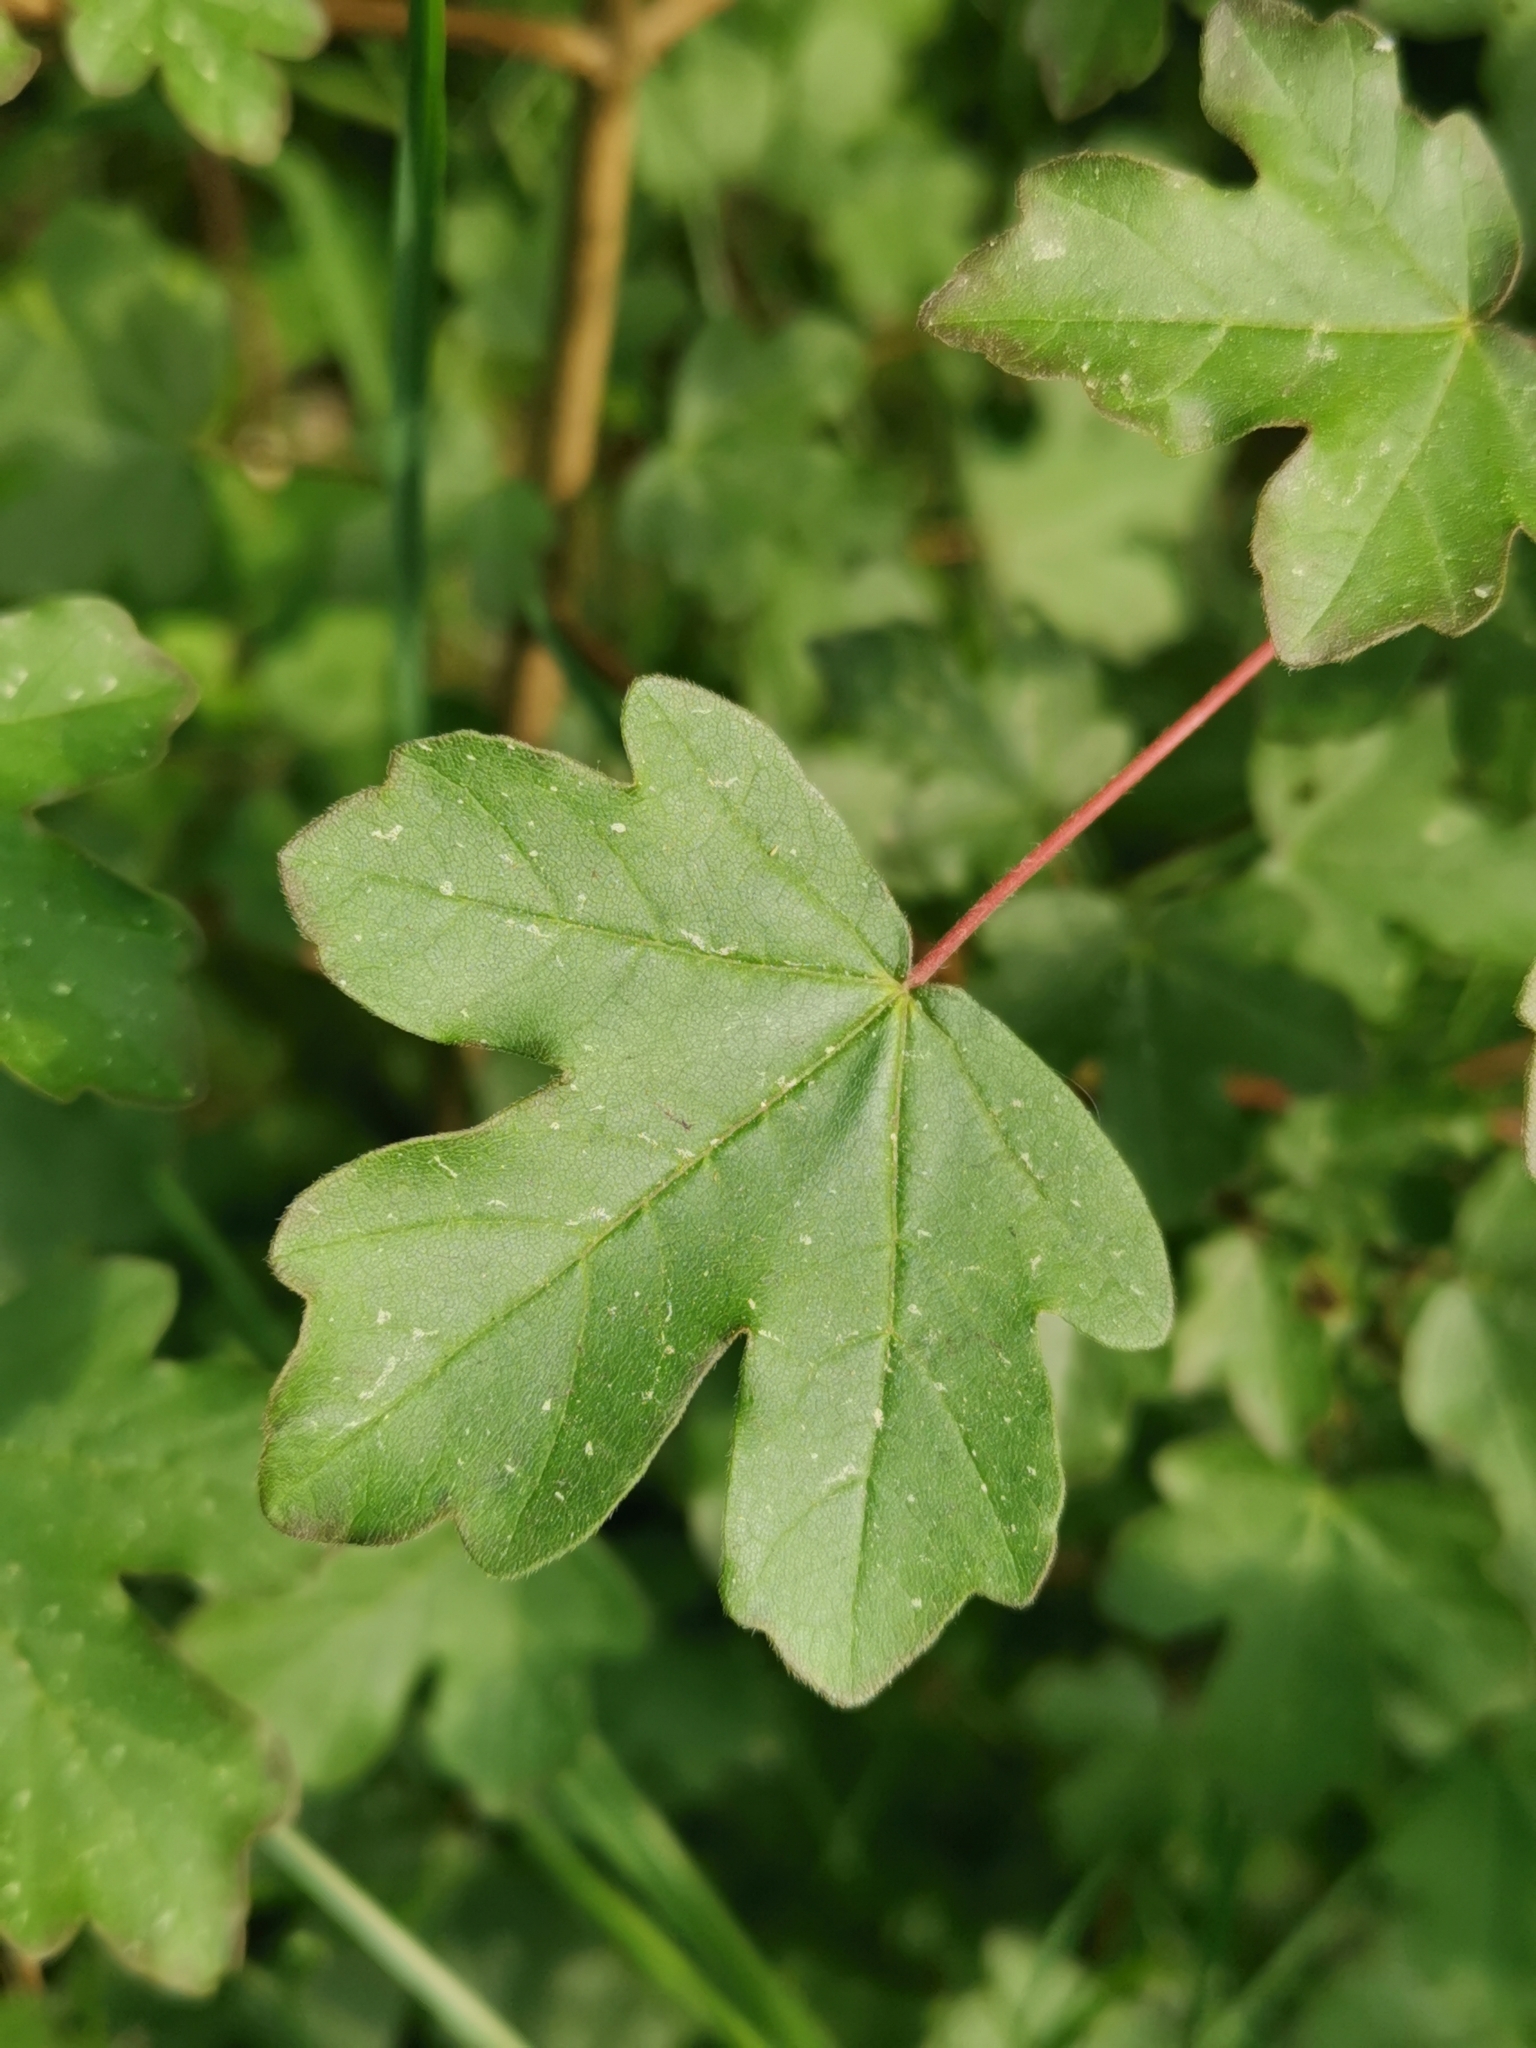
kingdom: Plantae
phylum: Tracheophyta
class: Magnoliopsida
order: Sapindales
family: Sapindaceae
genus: Acer
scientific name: Acer campestre
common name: Field maple
